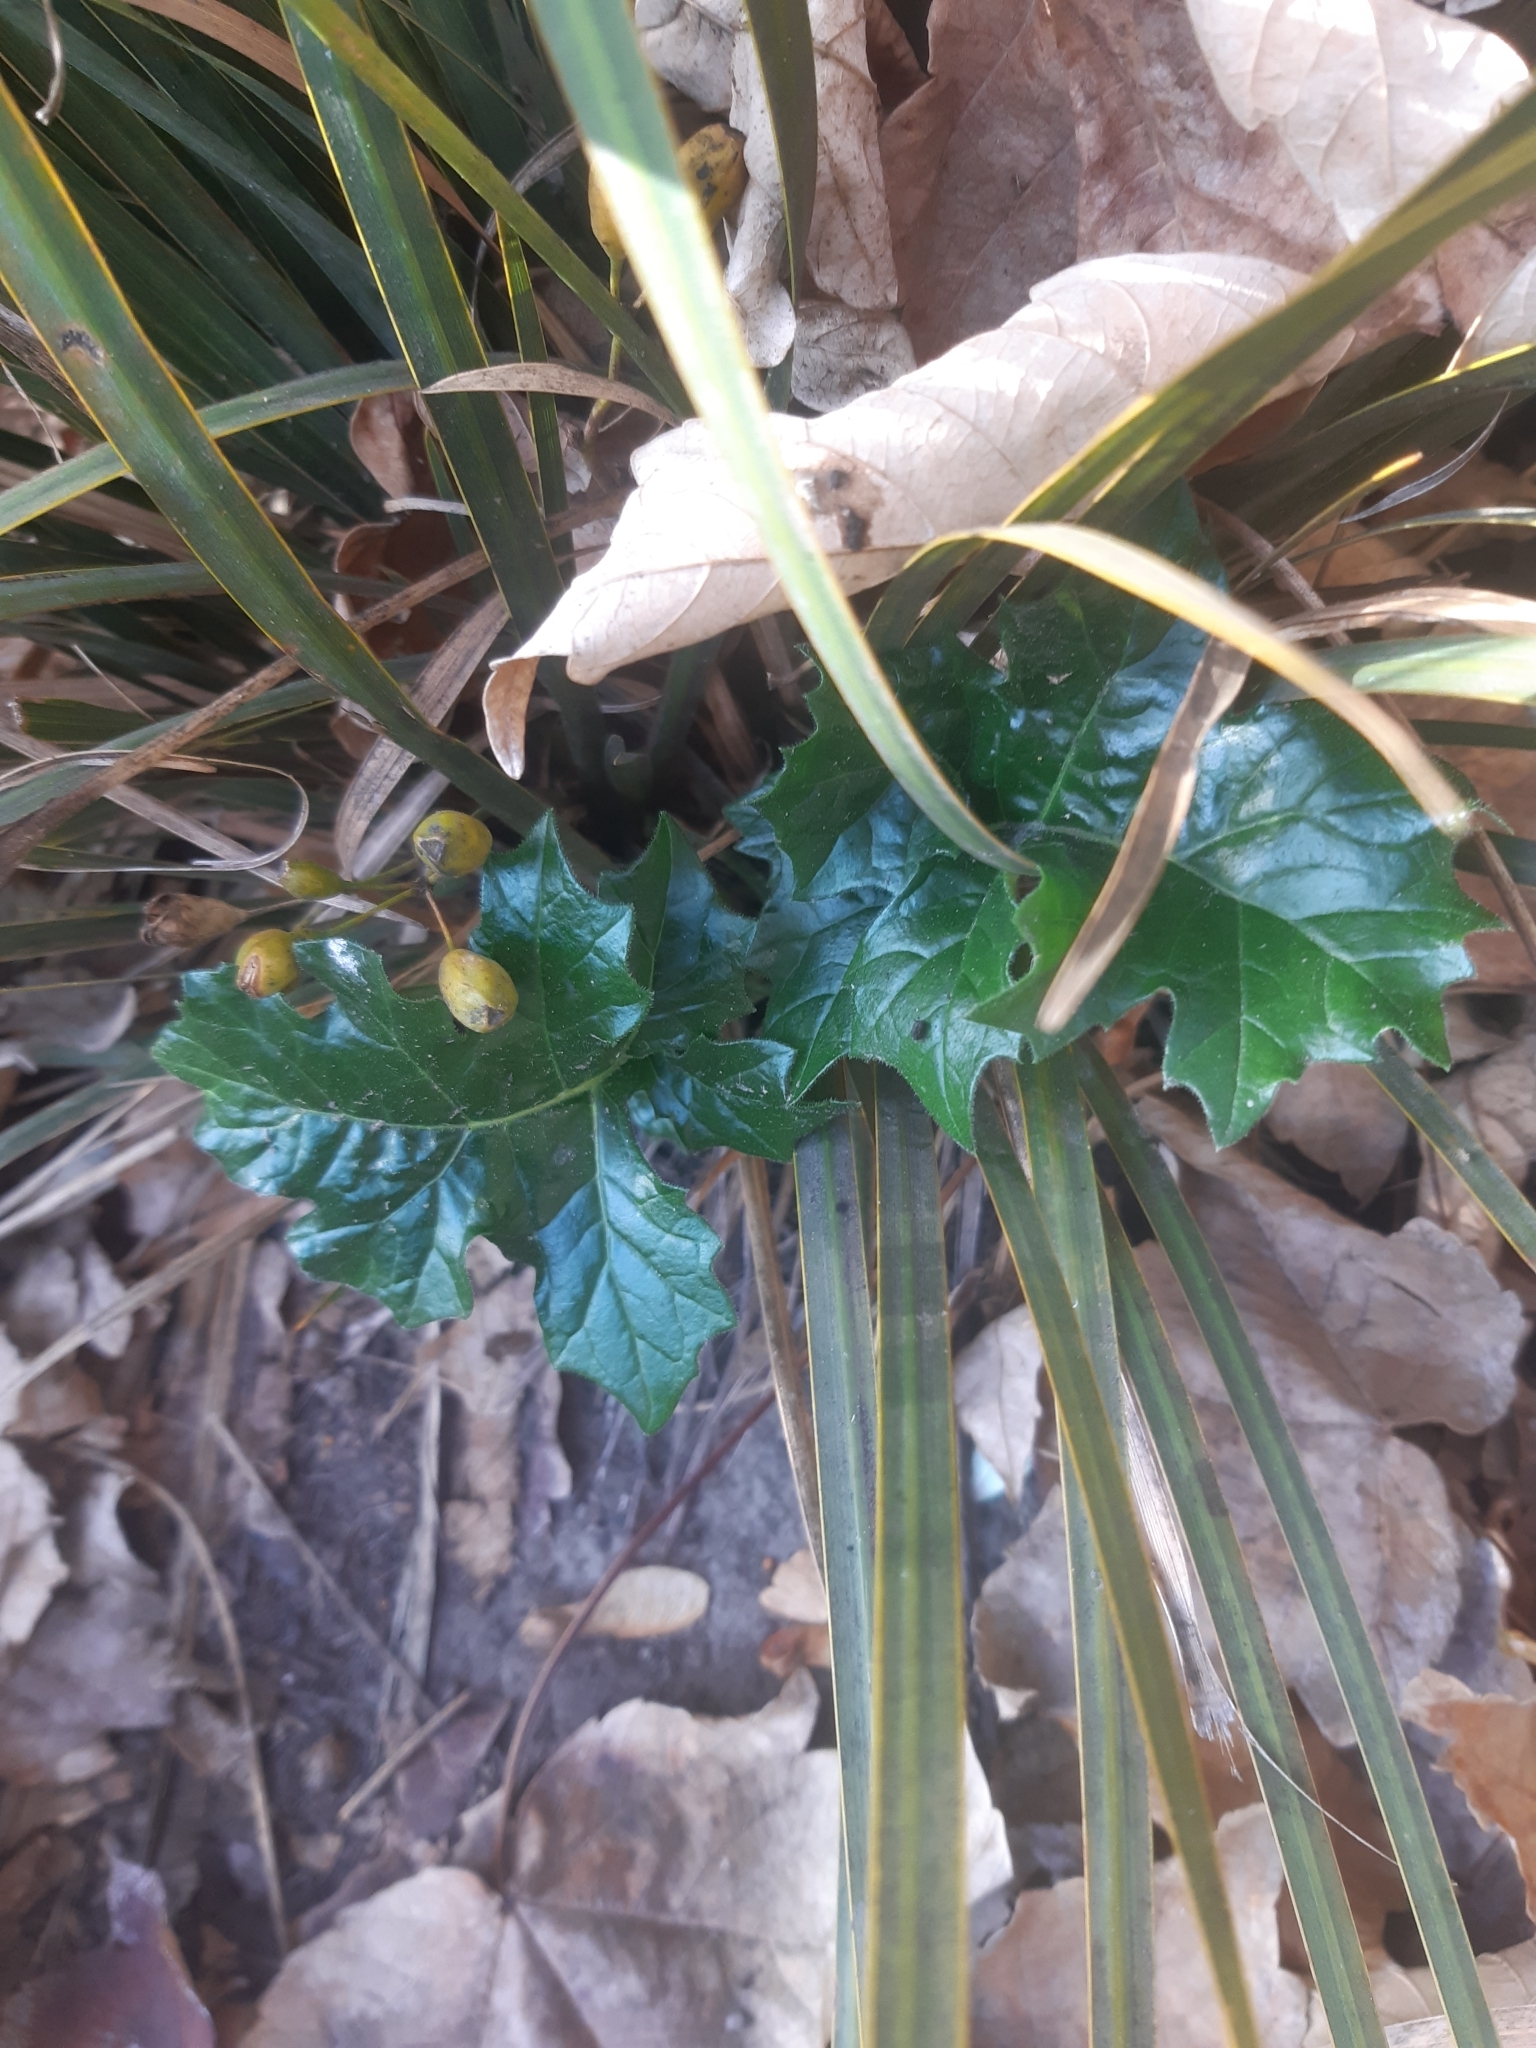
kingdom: Plantae
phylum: Tracheophyta
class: Magnoliopsida
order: Lamiales
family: Acanthaceae
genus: Acanthus
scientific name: Acanthus mollis
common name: Bear's-breech
